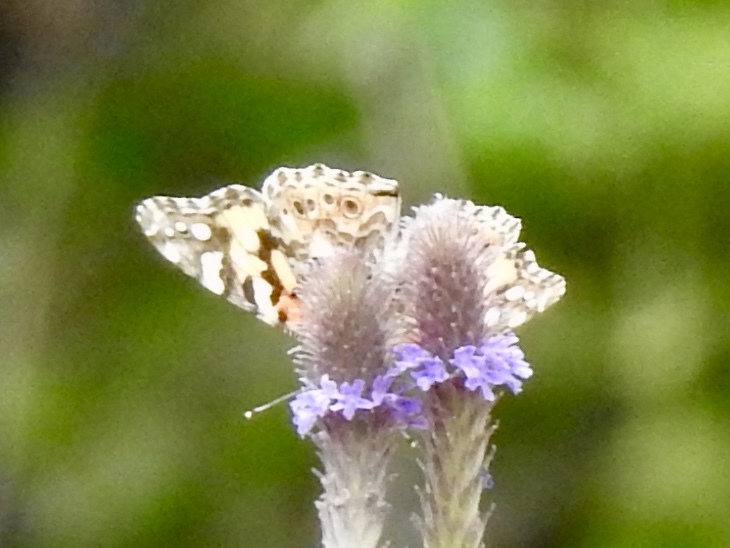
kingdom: Animalia
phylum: Arthropoda
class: Insecta
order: Lepidoptera
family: Nymphalidae
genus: Vanessa
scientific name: Vanessa cardui
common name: Painted lady
